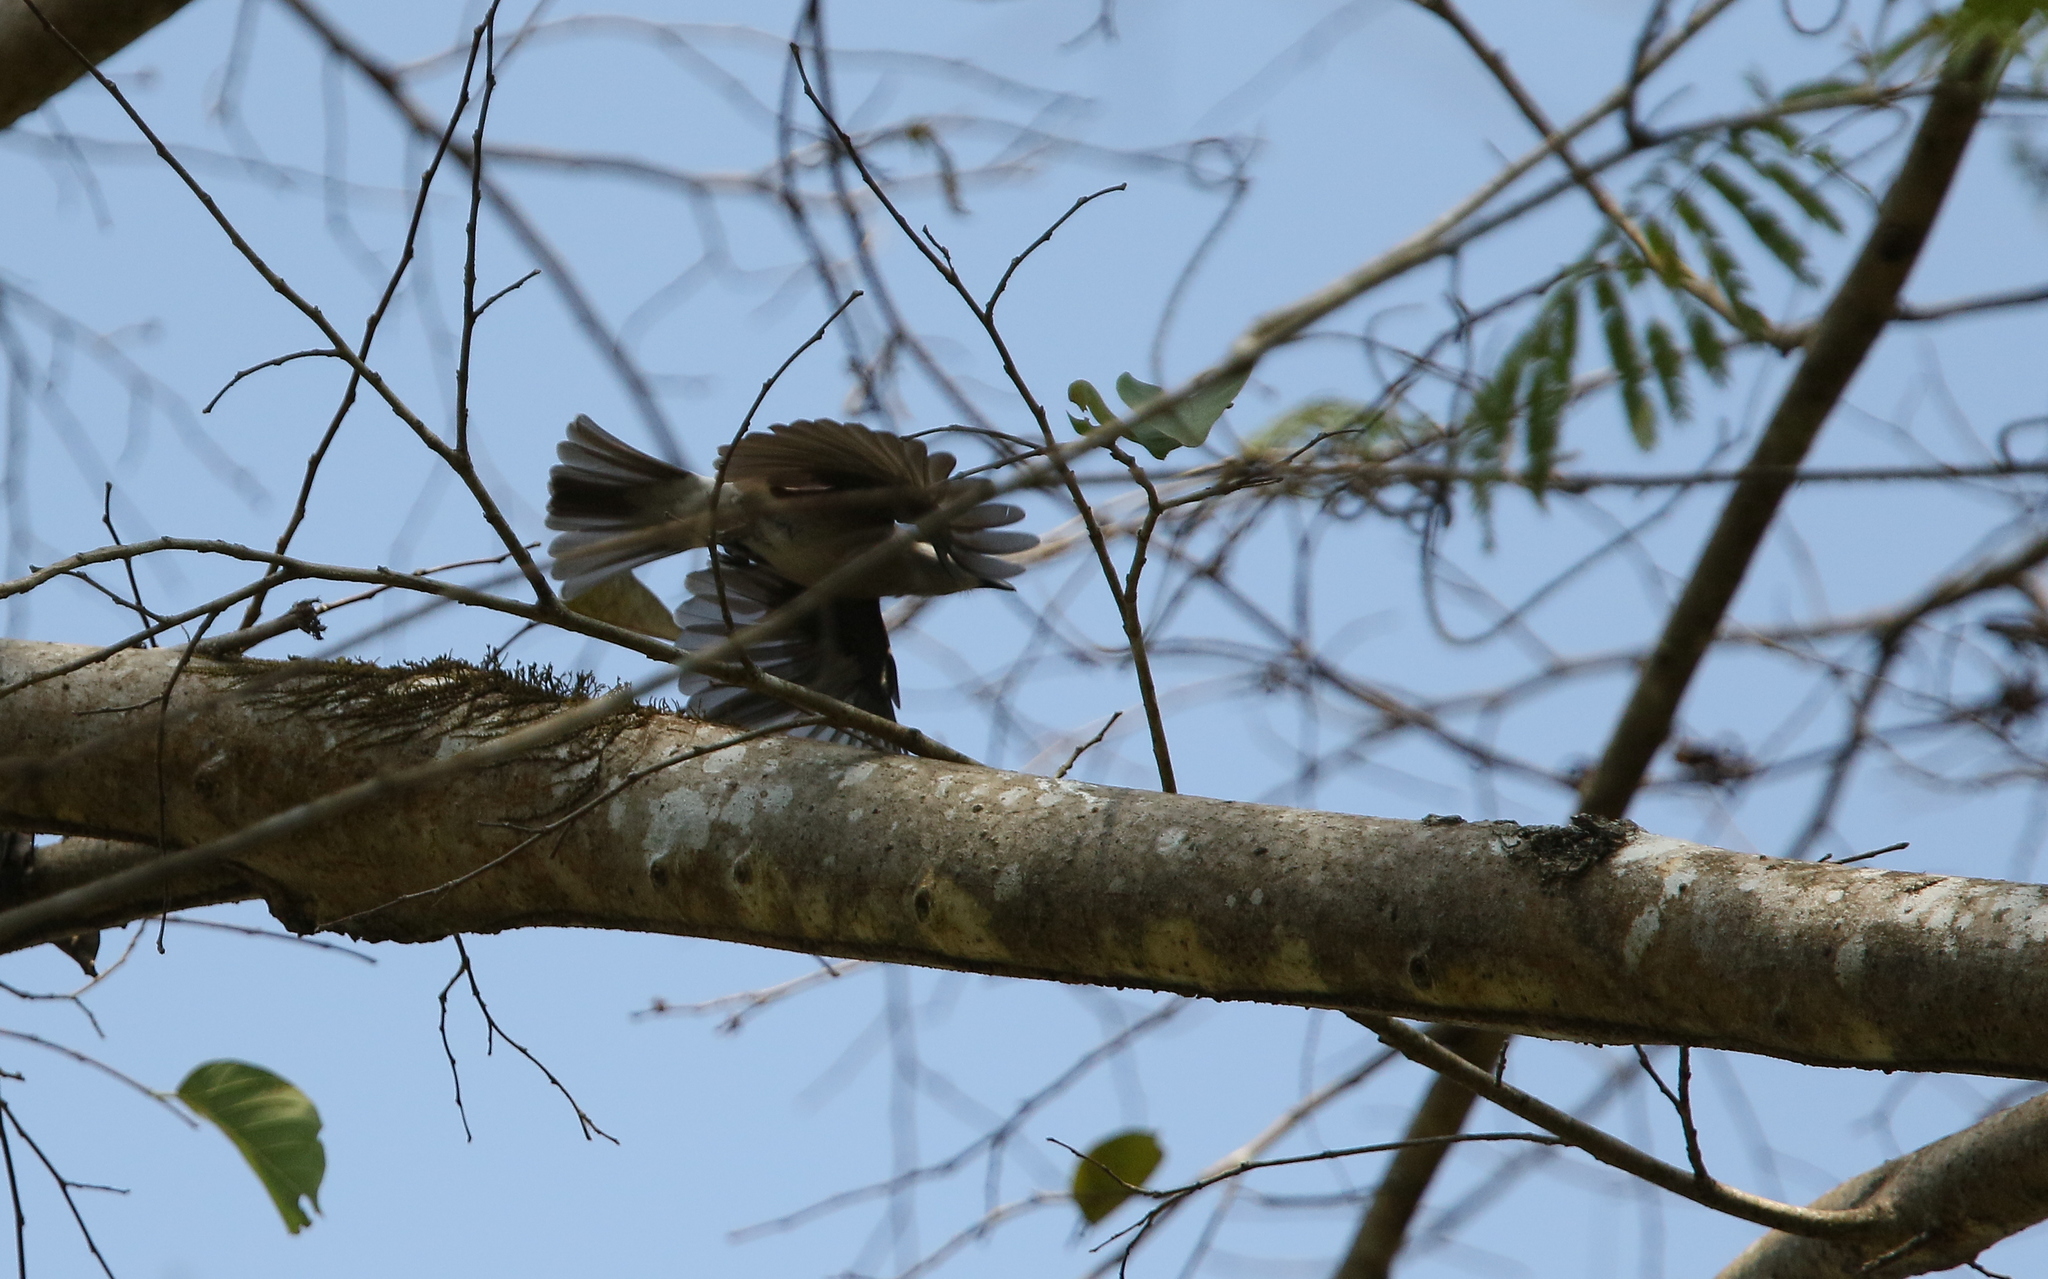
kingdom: Animalia
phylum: Chordata
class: Aves
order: Passeriformes
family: Tephrodornithidae
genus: Tephrodornis
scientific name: Tephrodornis virgatus
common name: Large woodshrike
